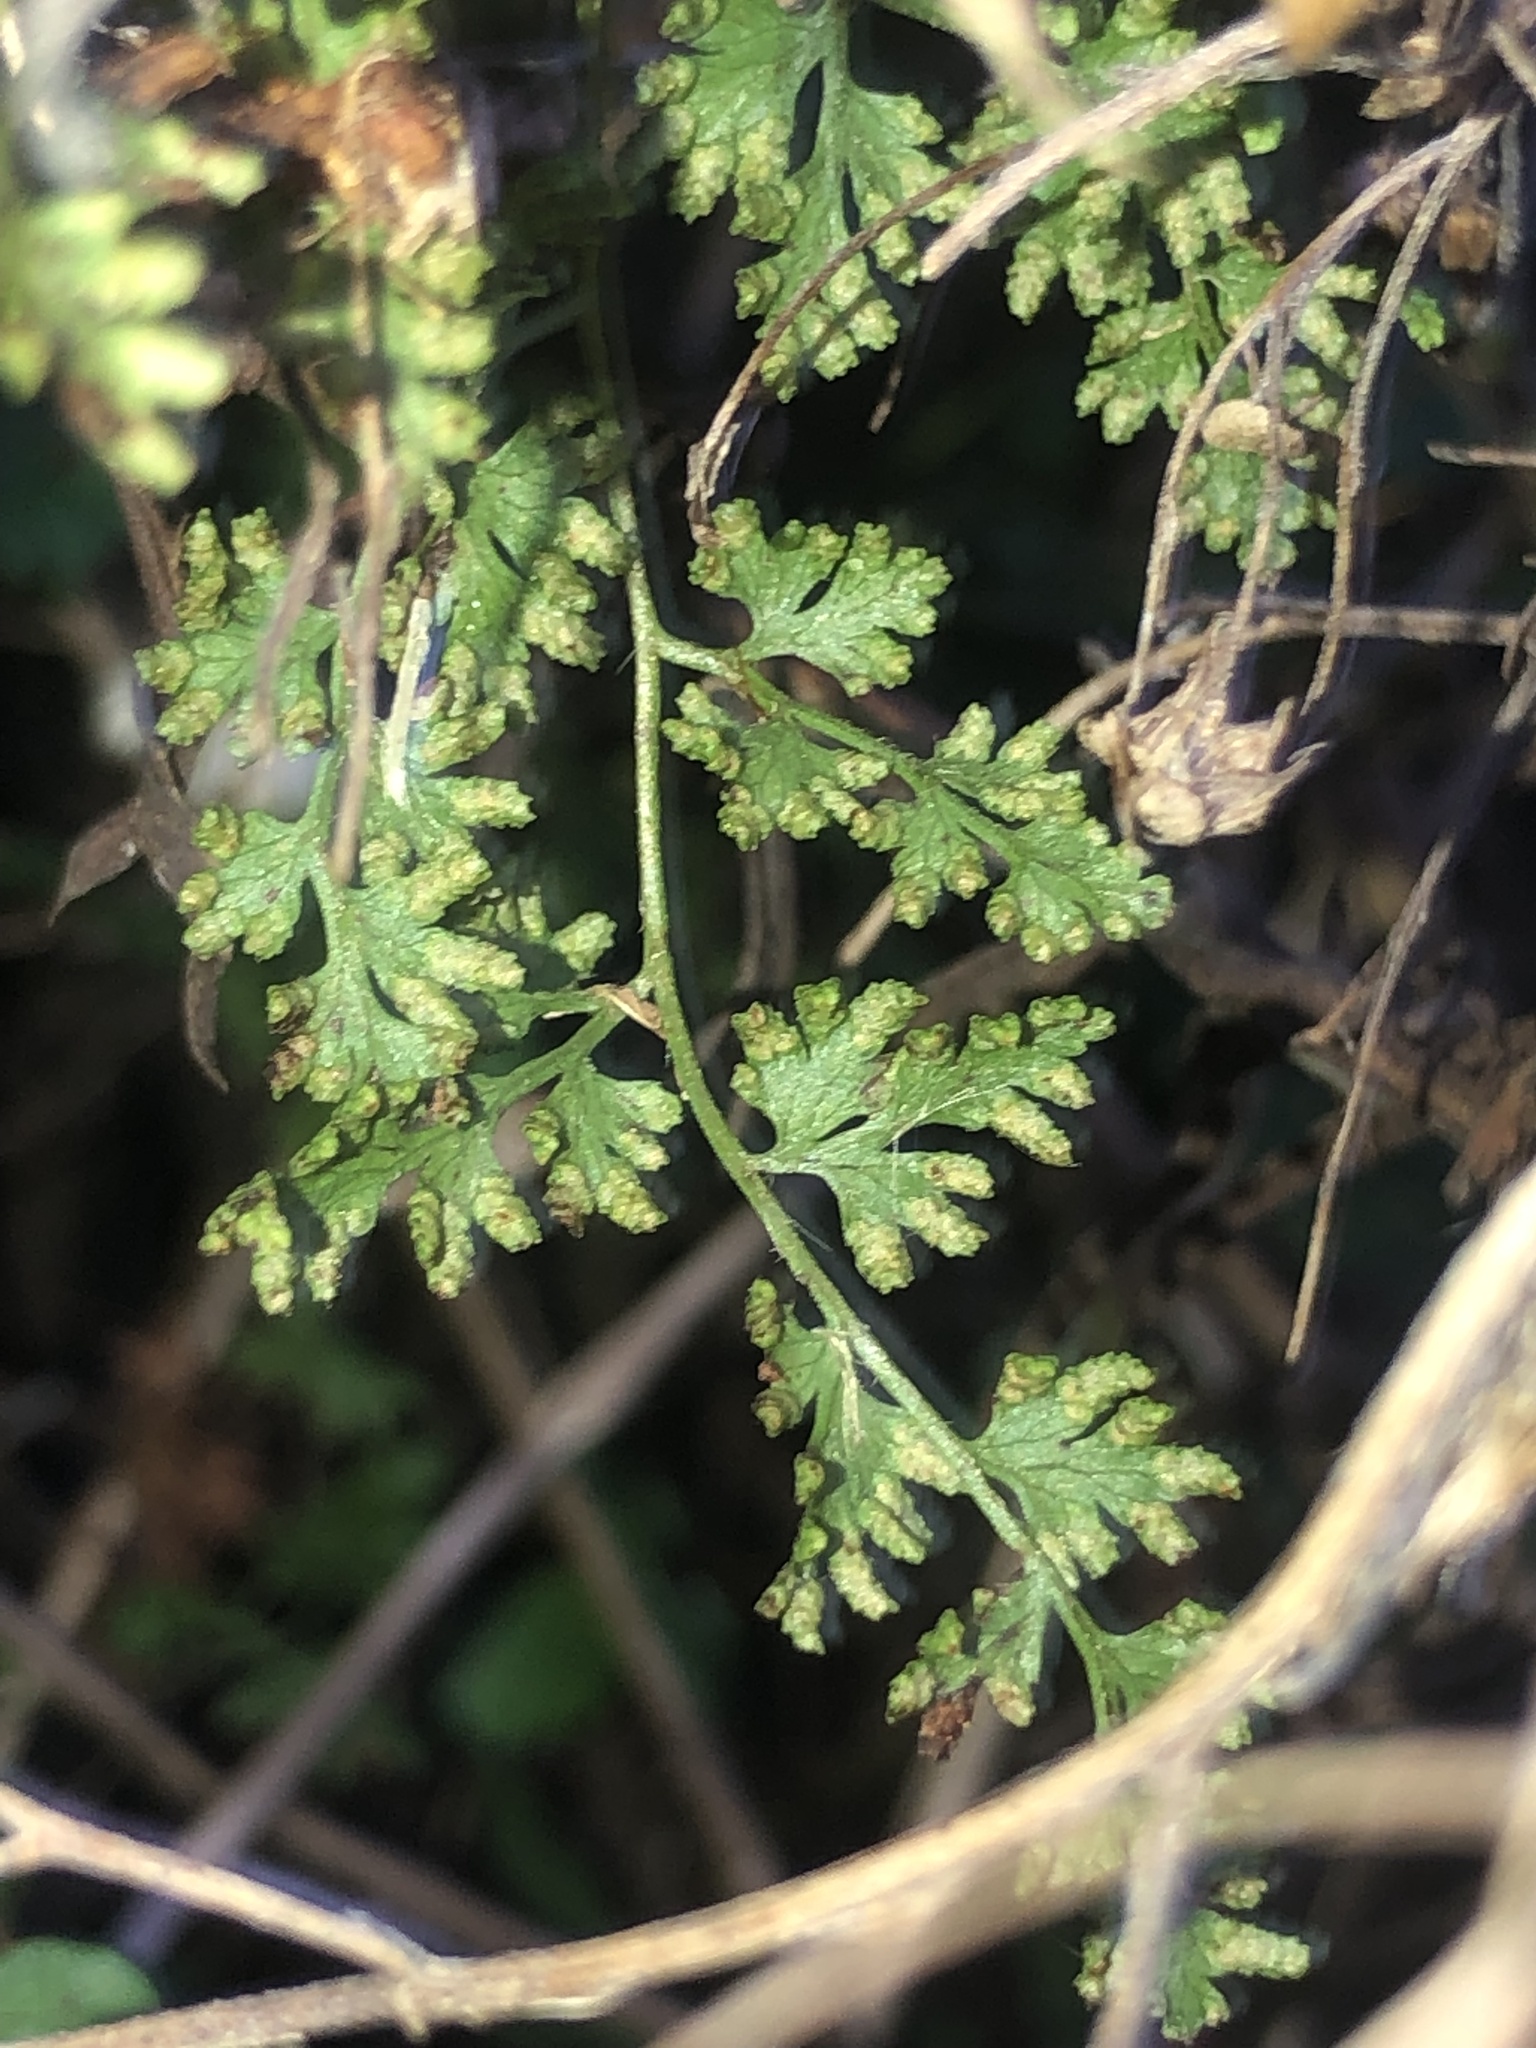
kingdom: Plantae
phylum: Tracheophyta
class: Polypodiopsida
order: Schizaeales
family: Lygodiaceae
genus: Lygodium
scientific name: Lygodium japonicum
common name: Japanese climbing fern
